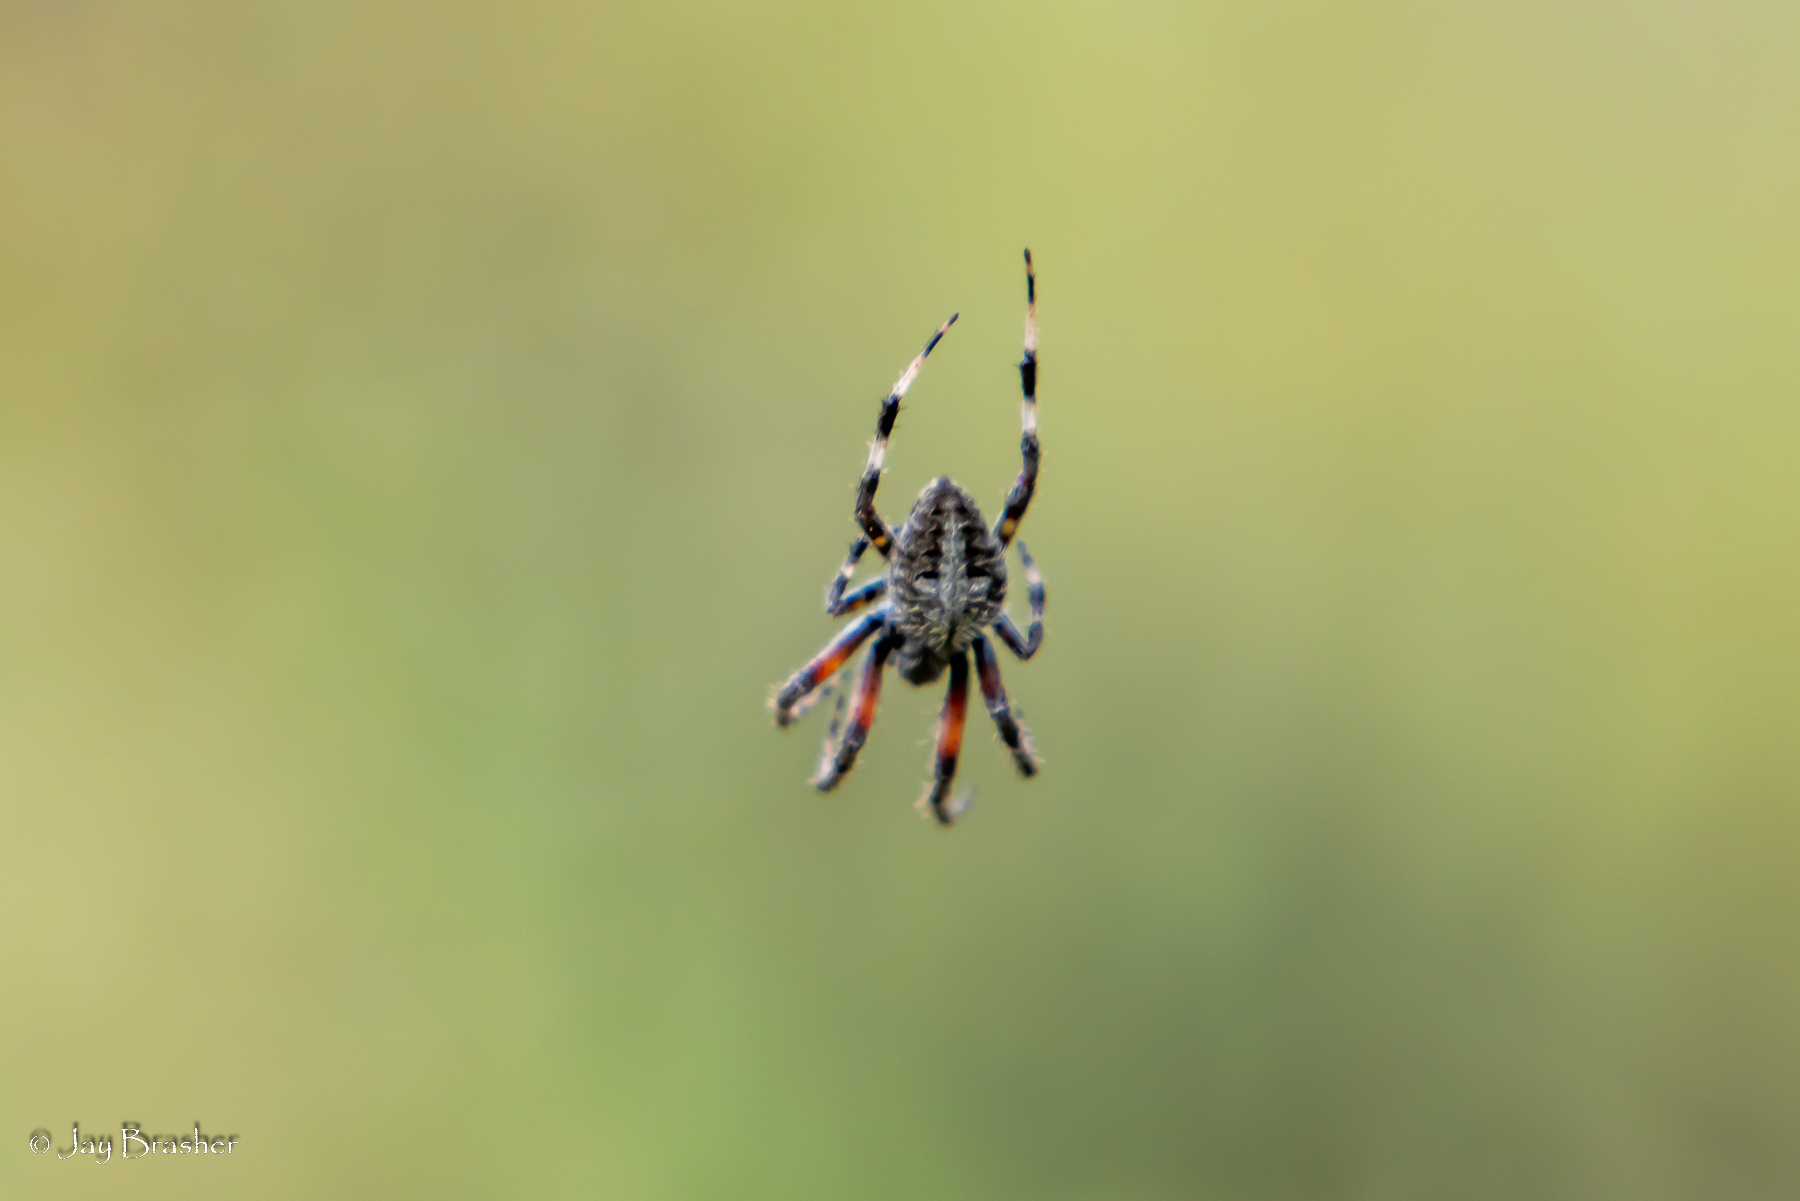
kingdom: Animalia
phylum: Arthropoda
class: Arachnida
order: Araneae
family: Araneidae
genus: Neoscona
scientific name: Neoscona domiciliorum
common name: Red-femured spotted orbweaver
